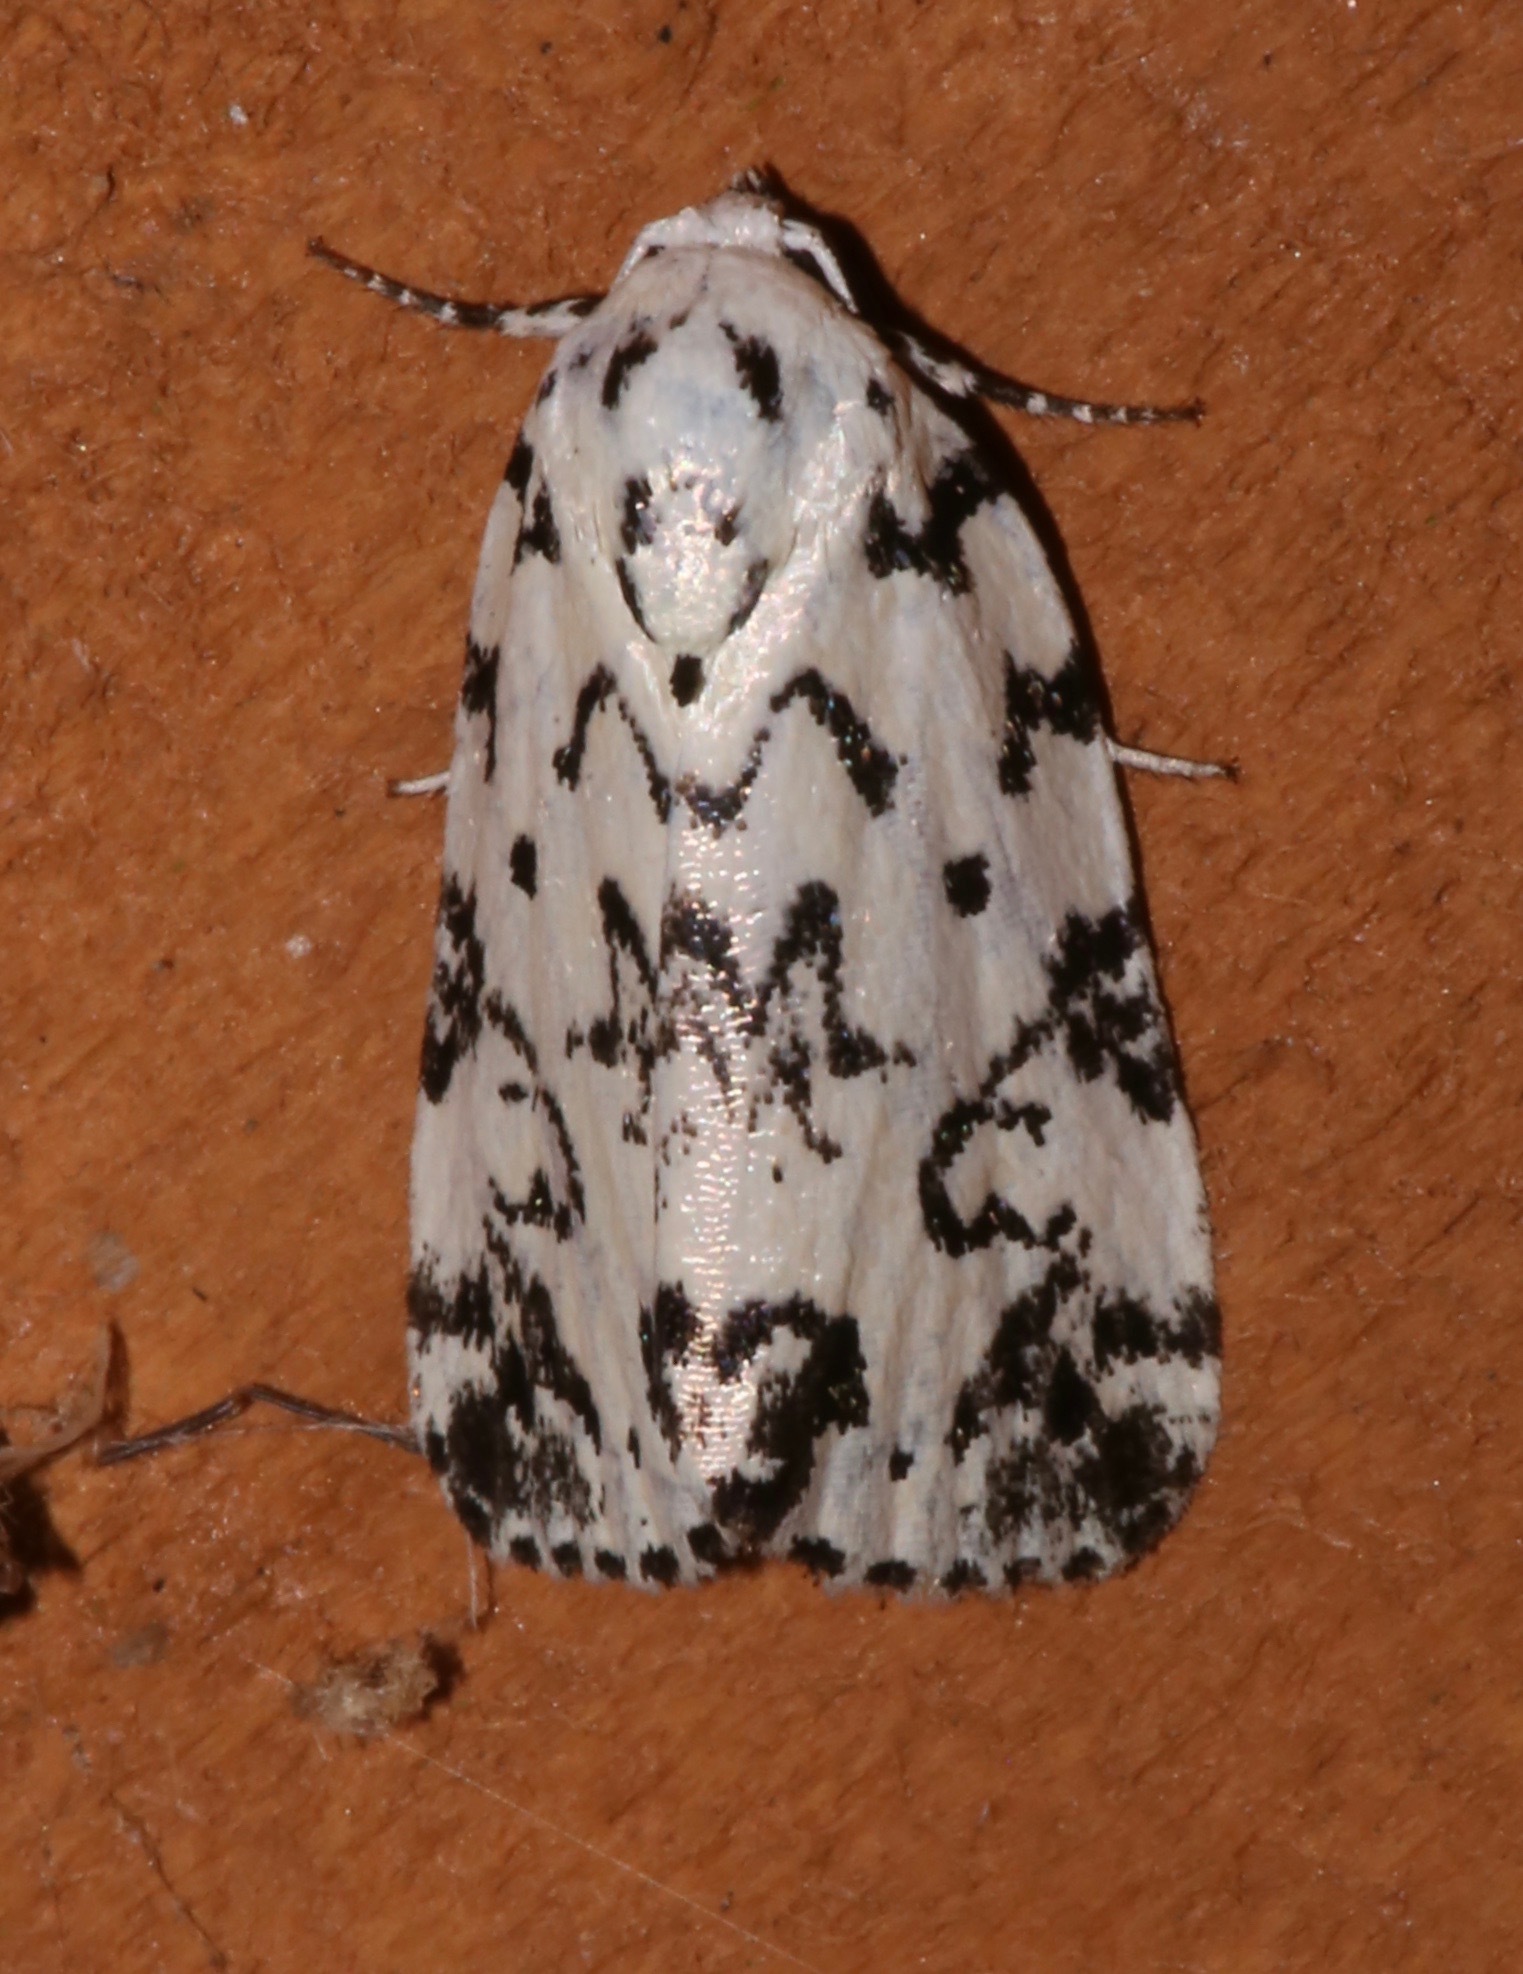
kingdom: Animalia
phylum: Arthropoda
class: Insecta
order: Lepidoptera
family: Noctuidae
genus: Polygrammate
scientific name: Polygrammate hebraeicum
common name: Hebrew moth
